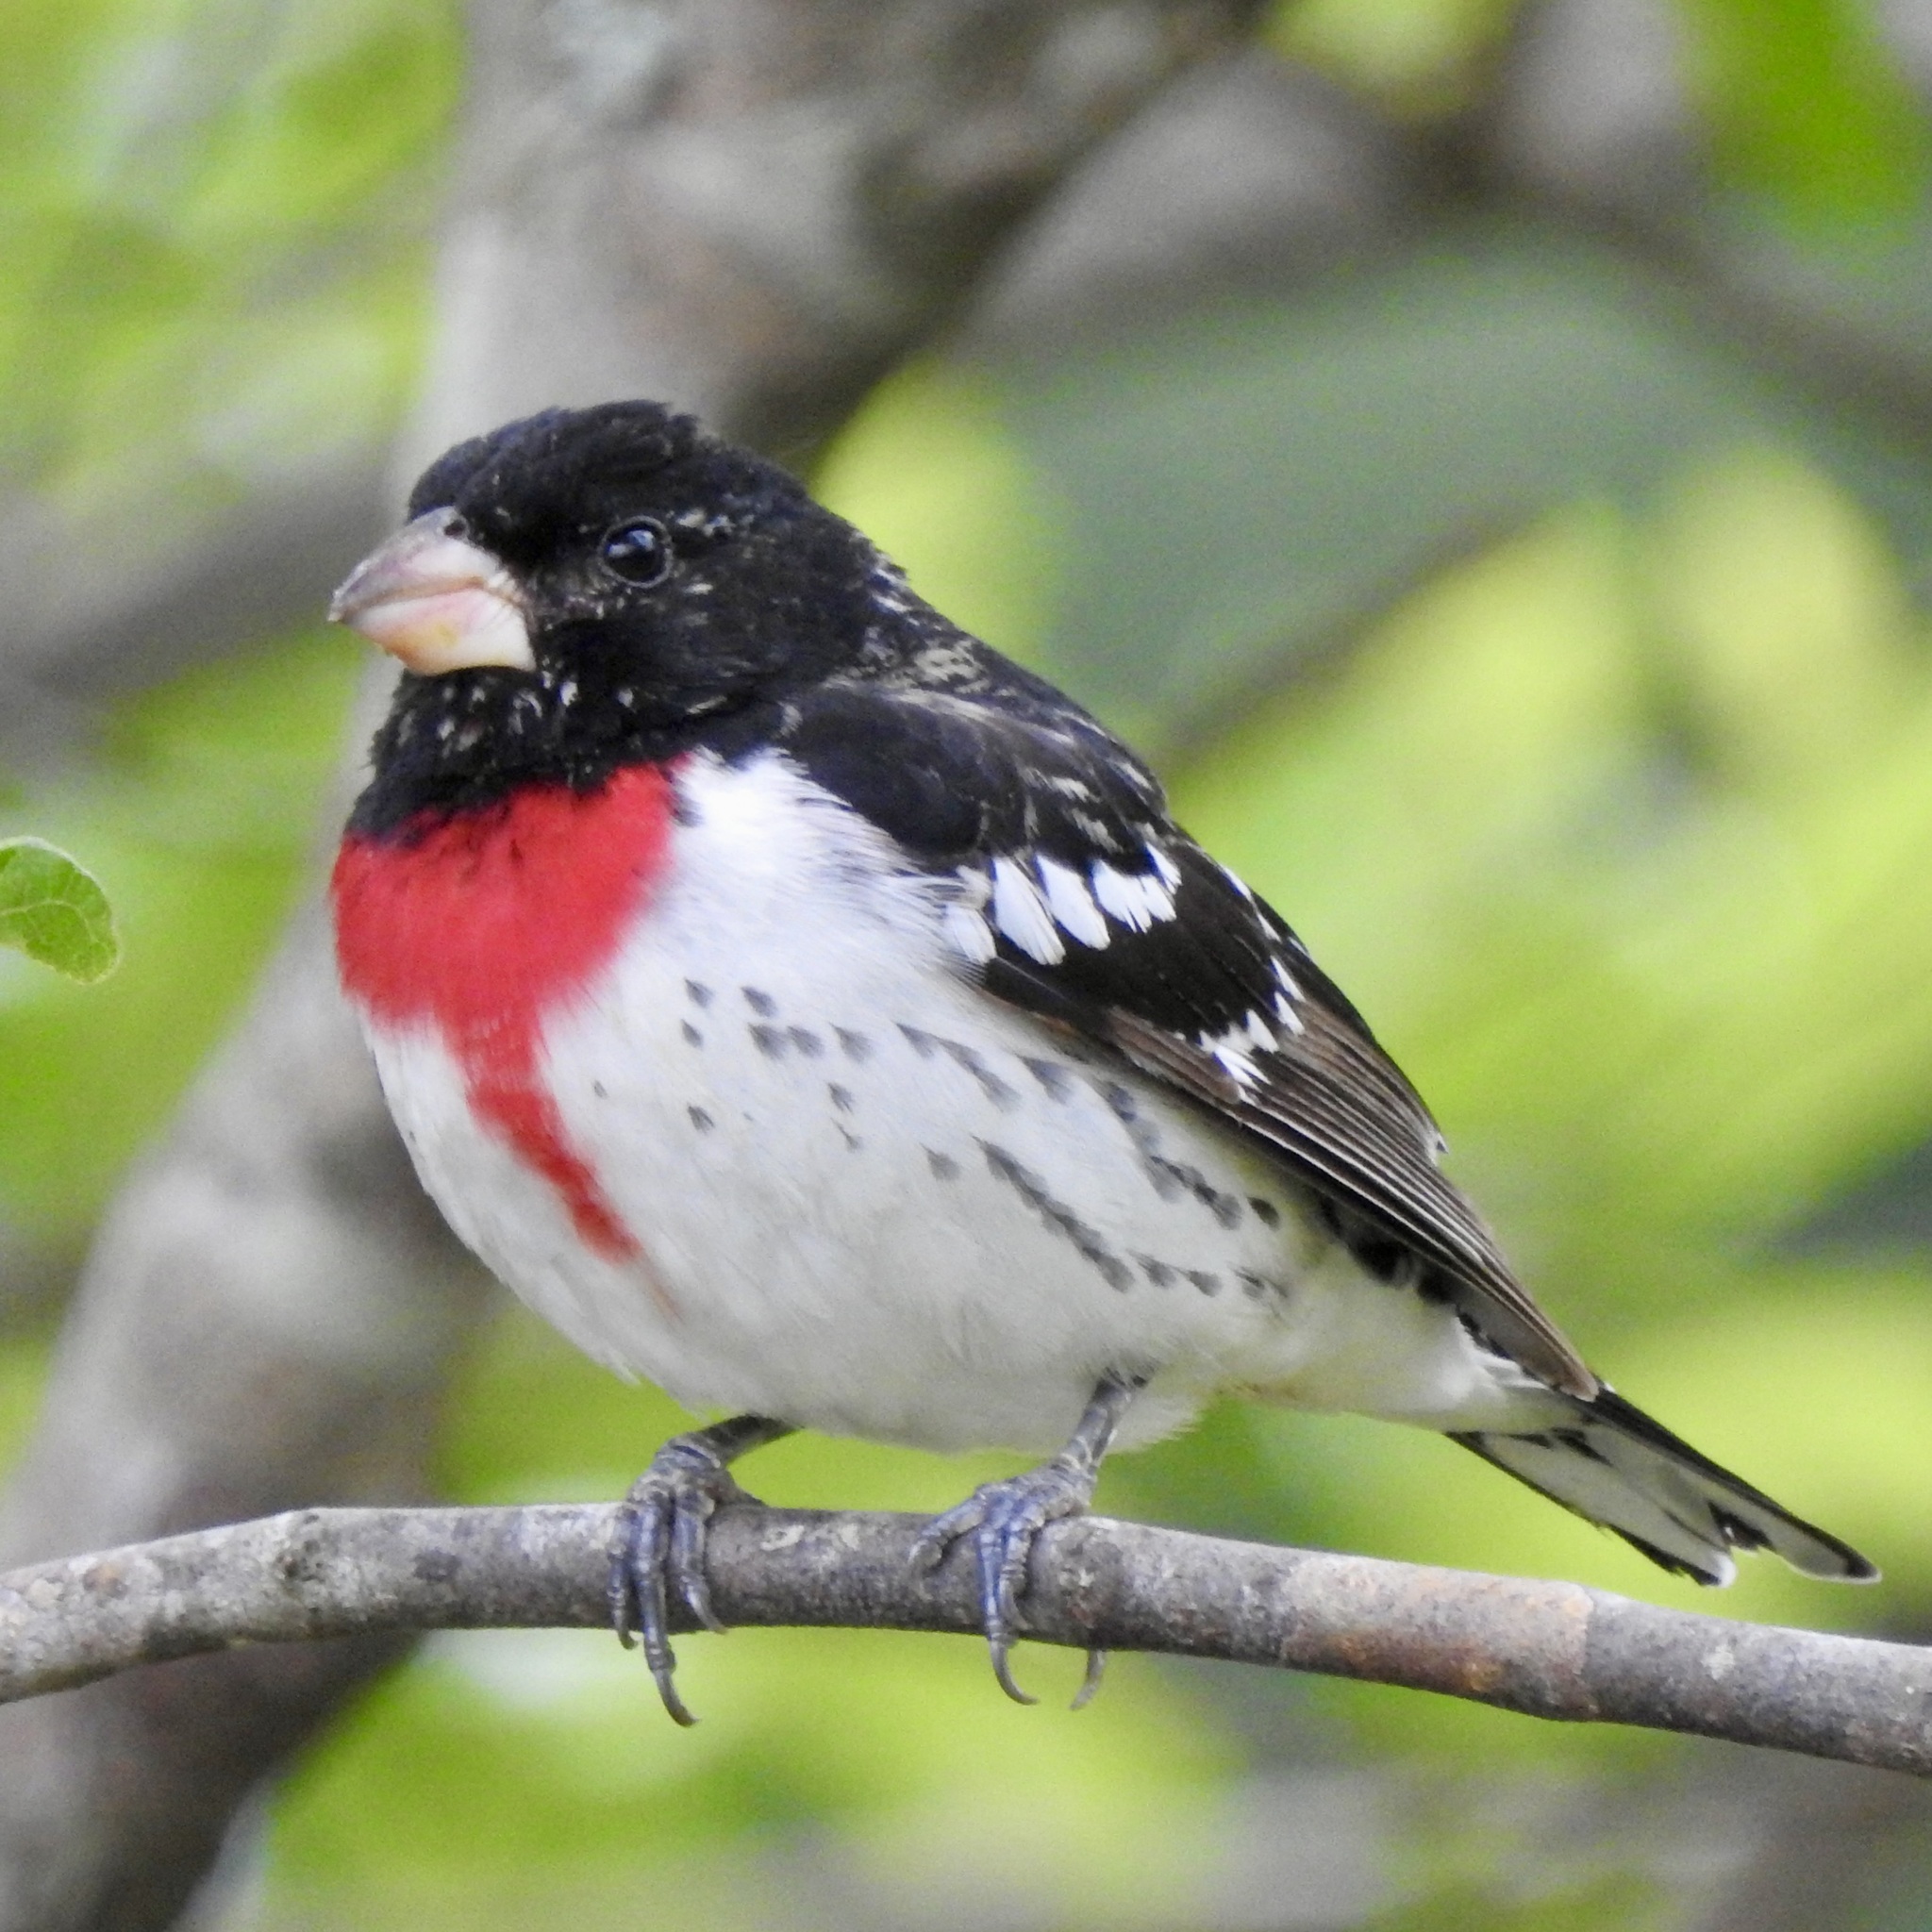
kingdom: Animalia
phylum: Chordata
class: Aves
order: Passeriformes
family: Cardinalidae
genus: Pheucticus
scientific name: Pheucticus ludovicianus
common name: Rose-breasted grosbeak
